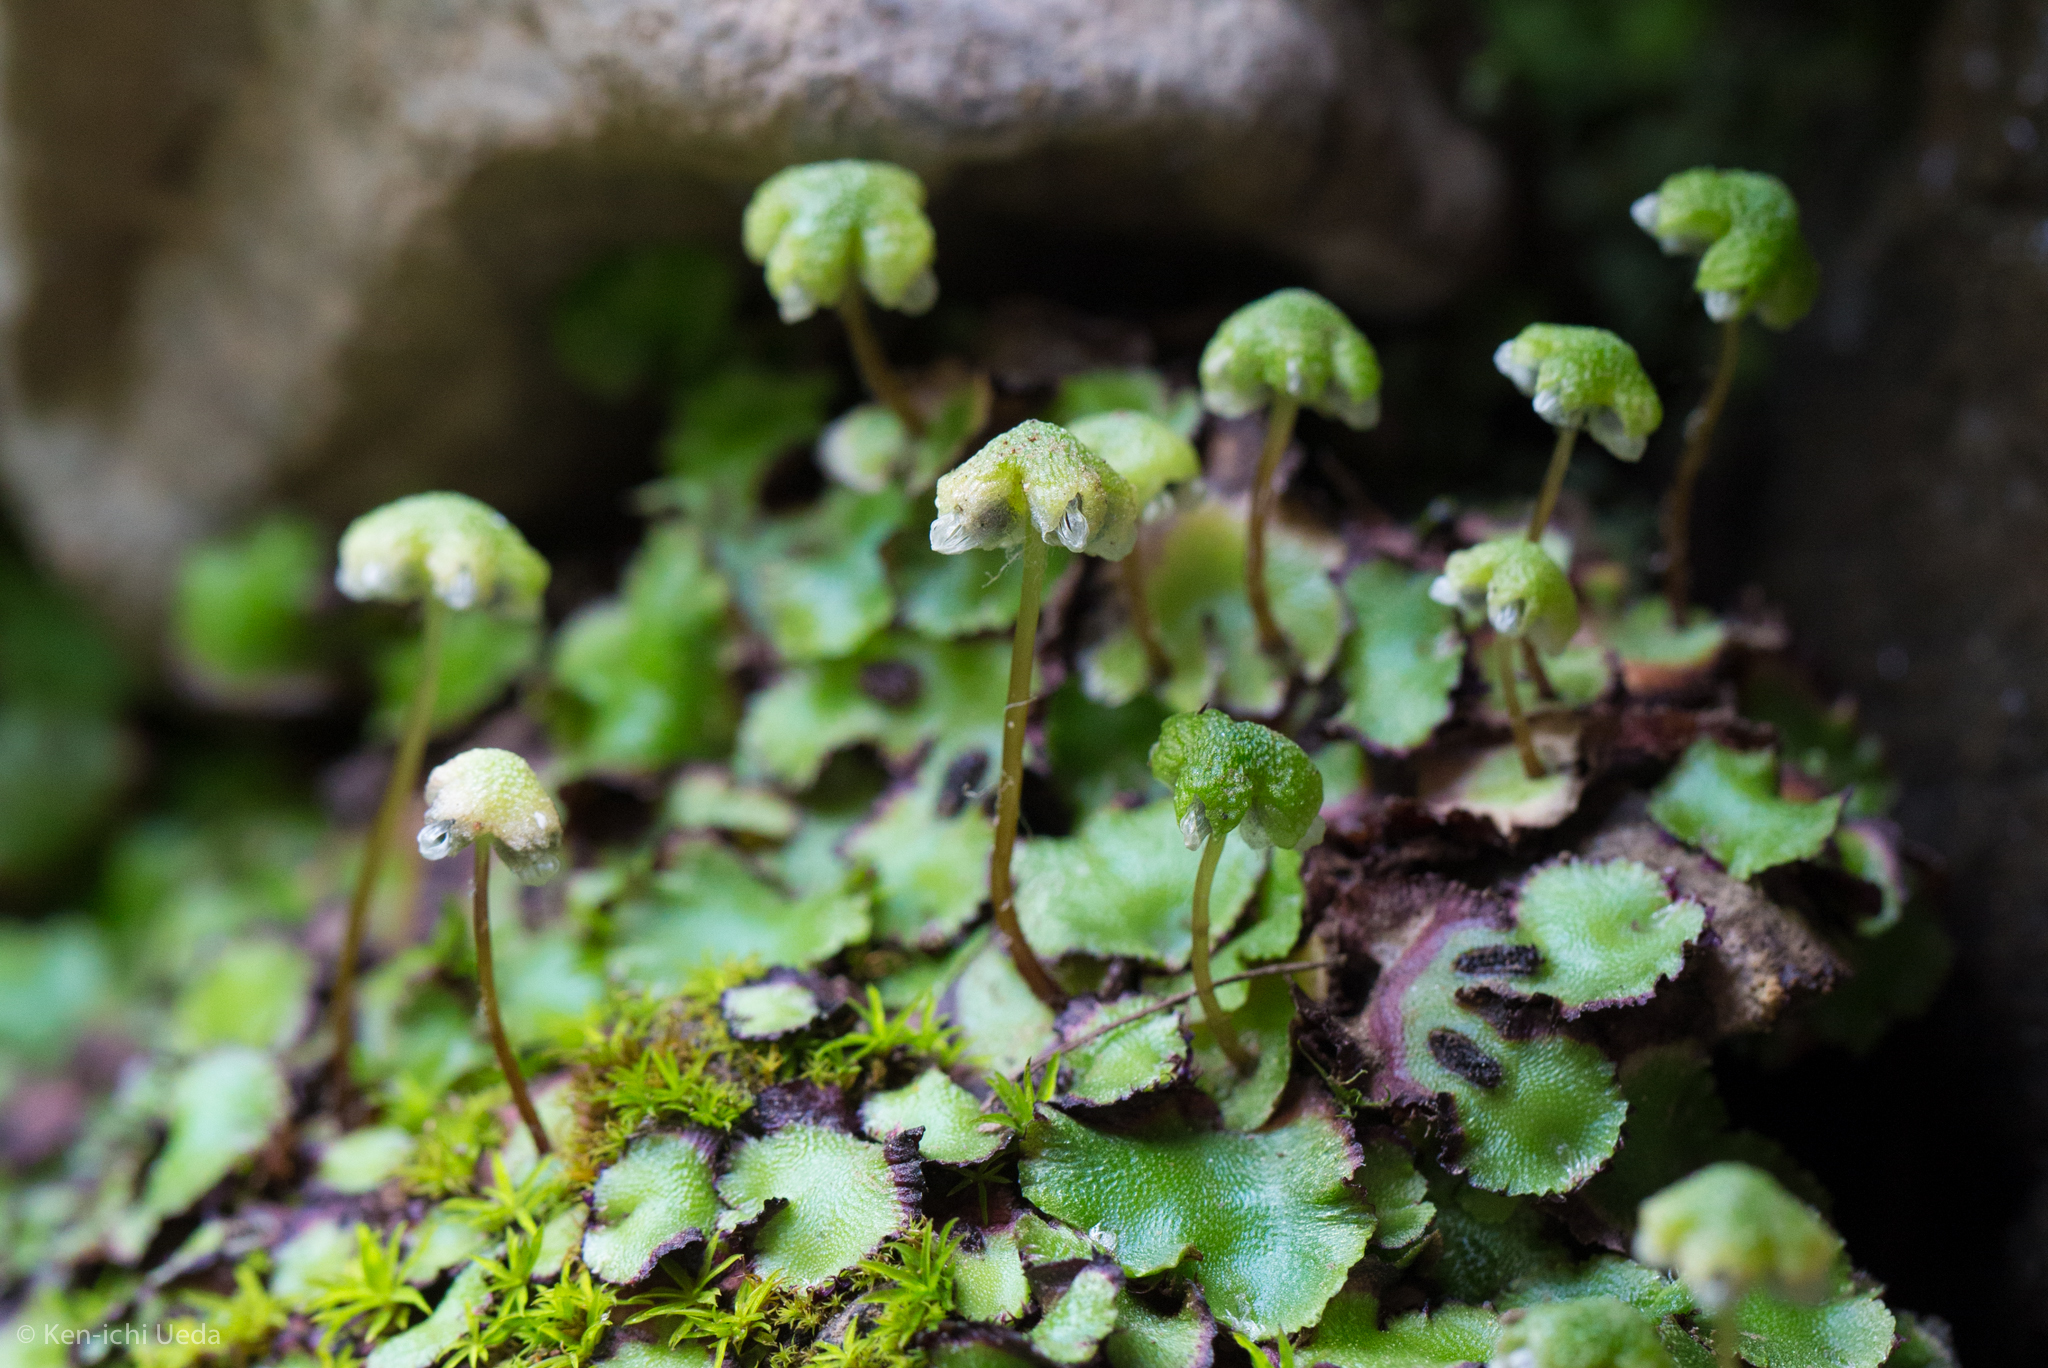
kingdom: Plantae
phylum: Marchantiophyta
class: Marchantiopsida
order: Marchantiales
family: Aytoniaceae
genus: Asterella
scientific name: Asterella californica
